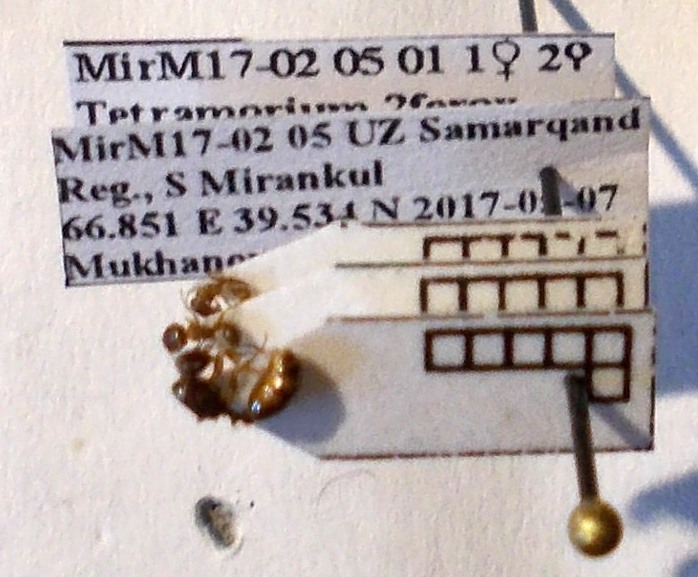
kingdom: Animalia
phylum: Arthropoda
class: Insecta
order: Hymenoptera
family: Formicidae
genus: Tetramorium
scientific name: Tetramorium ferox
